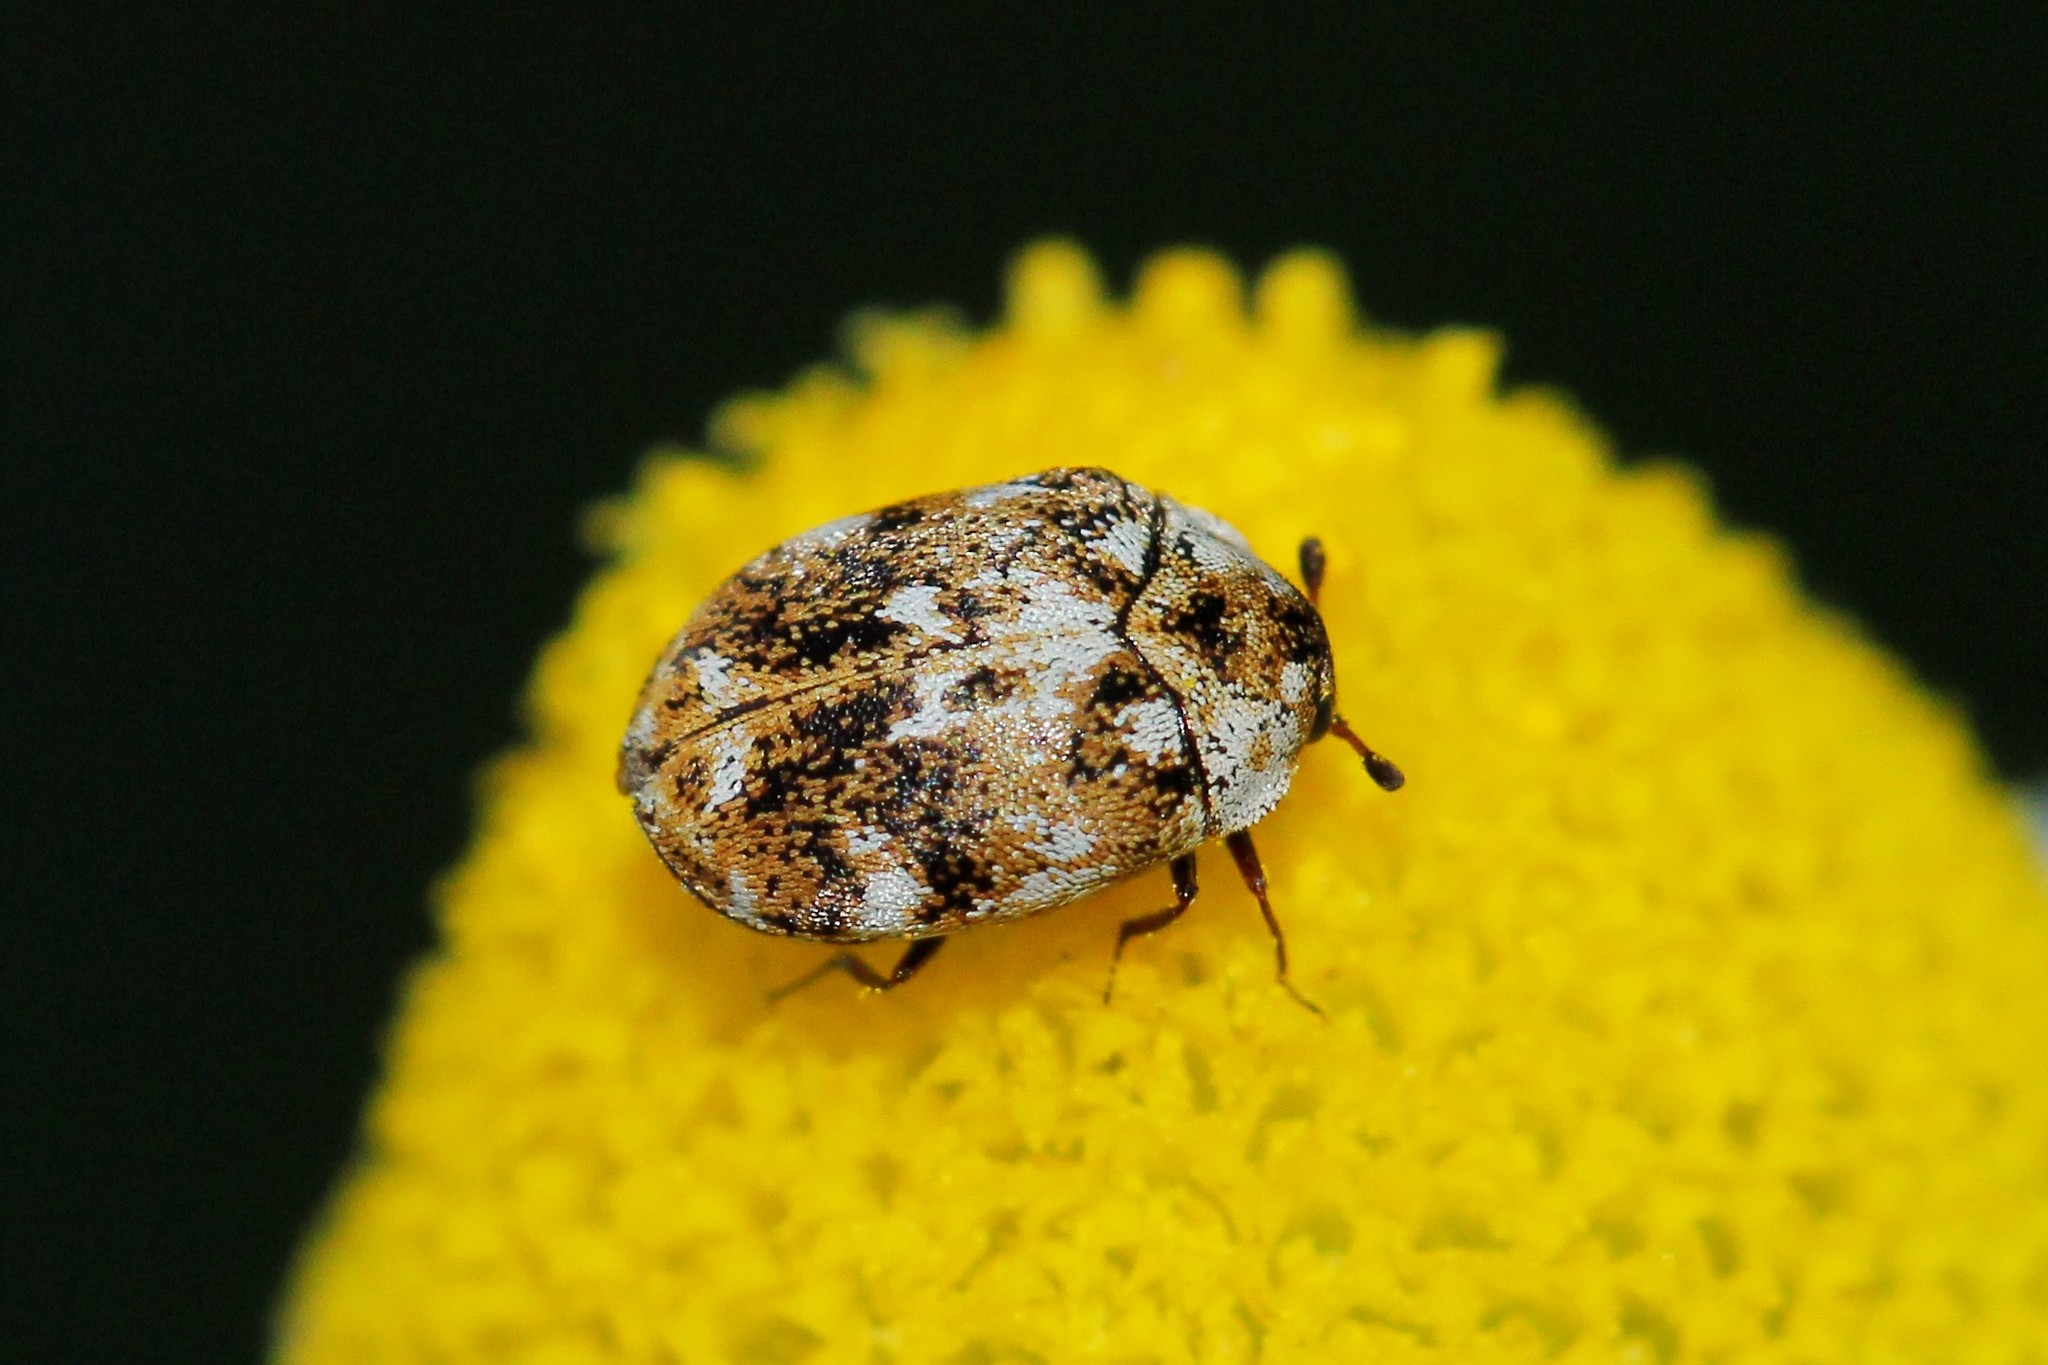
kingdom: Animalia
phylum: Arthropoda
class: Insecta
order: Coleoptera
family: Dermestidae
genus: Anthrenus
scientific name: Anthrenus picturatus
